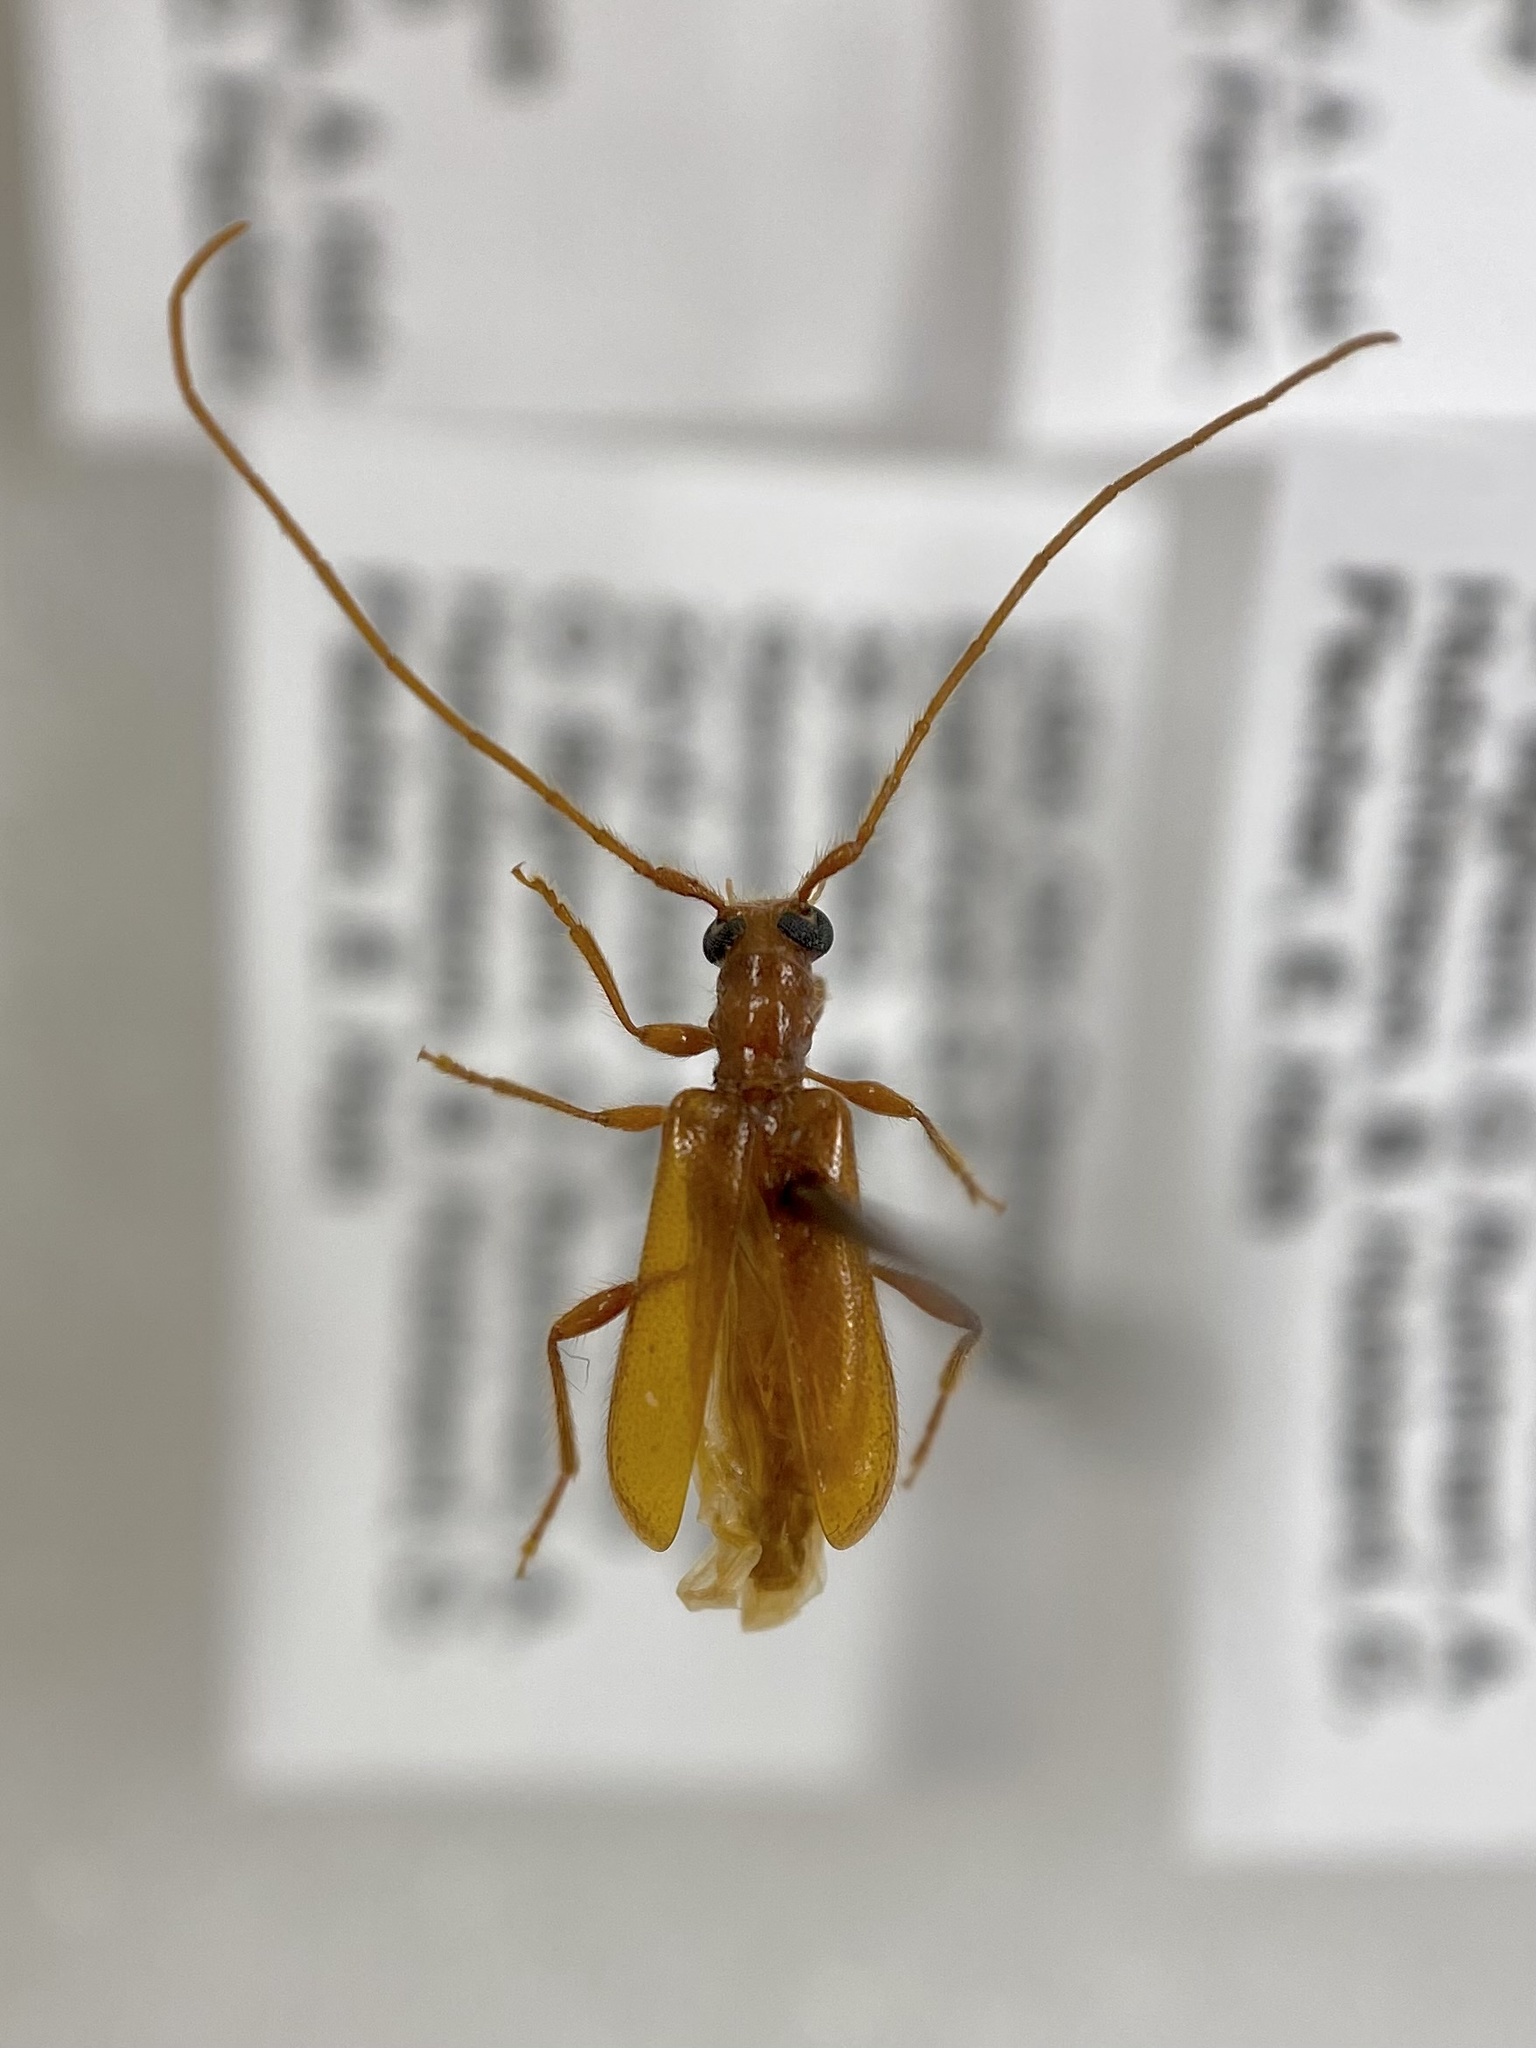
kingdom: Animalia
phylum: Arthropoda
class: Insecta
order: Coleoptera
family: Cerambycidae
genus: Obrium
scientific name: Obrium rufulum
